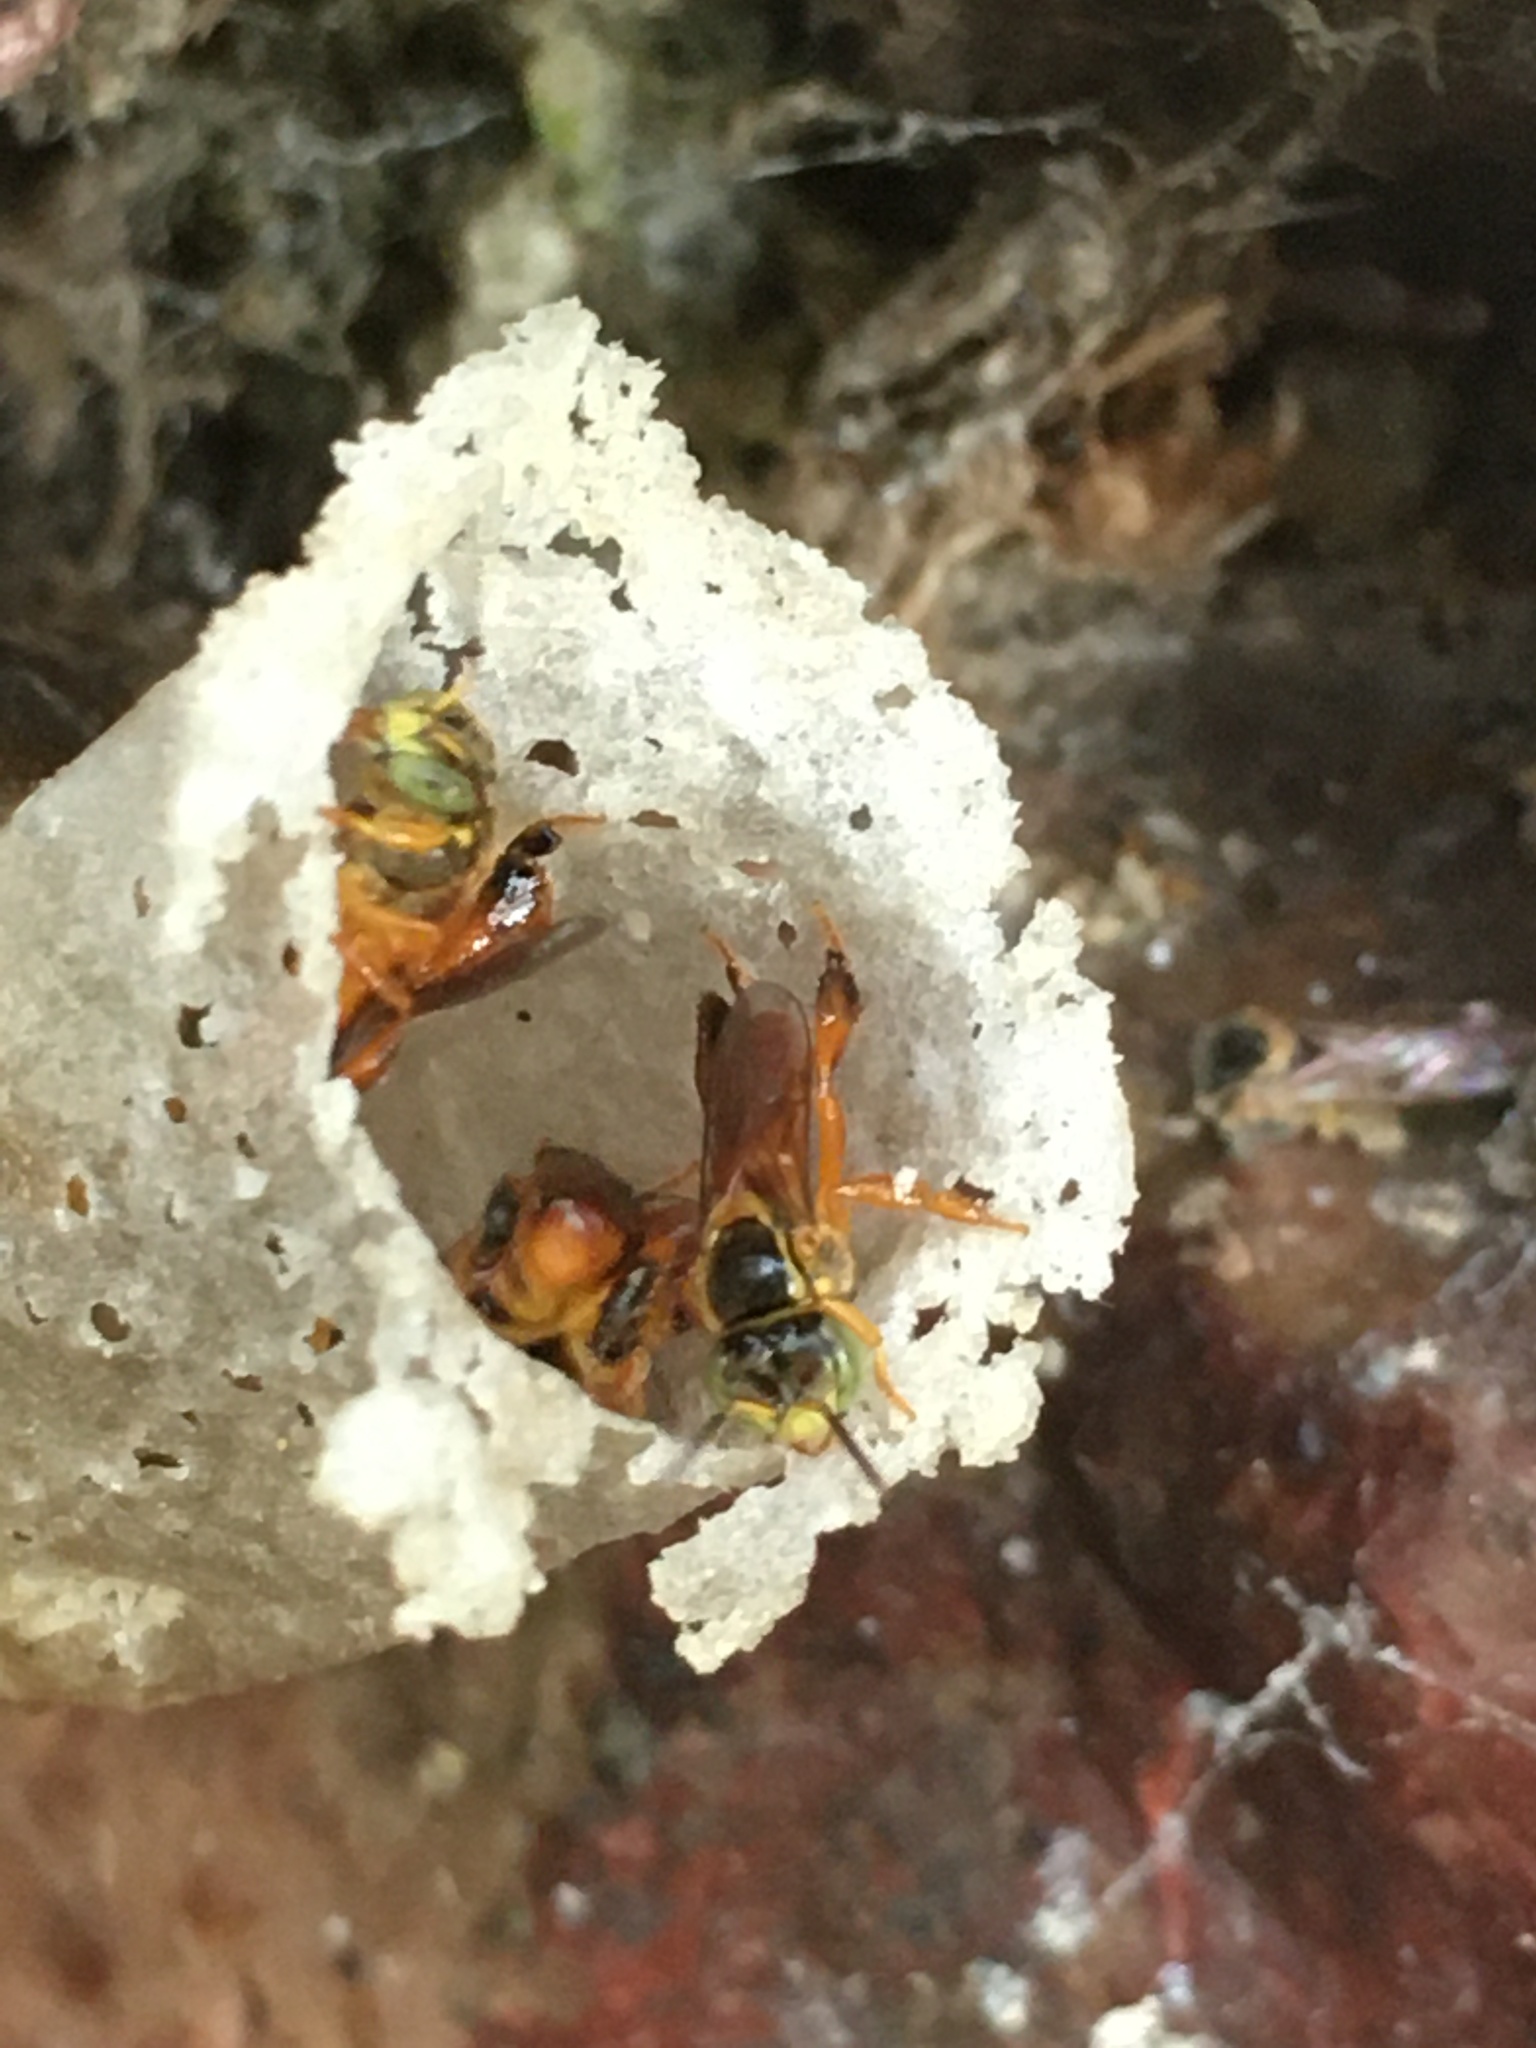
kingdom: Animalia
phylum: Arthropoda
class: Insecta
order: Hymenoptera
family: Apidae
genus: Tetragonisca
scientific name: Tetragonisca angustula
